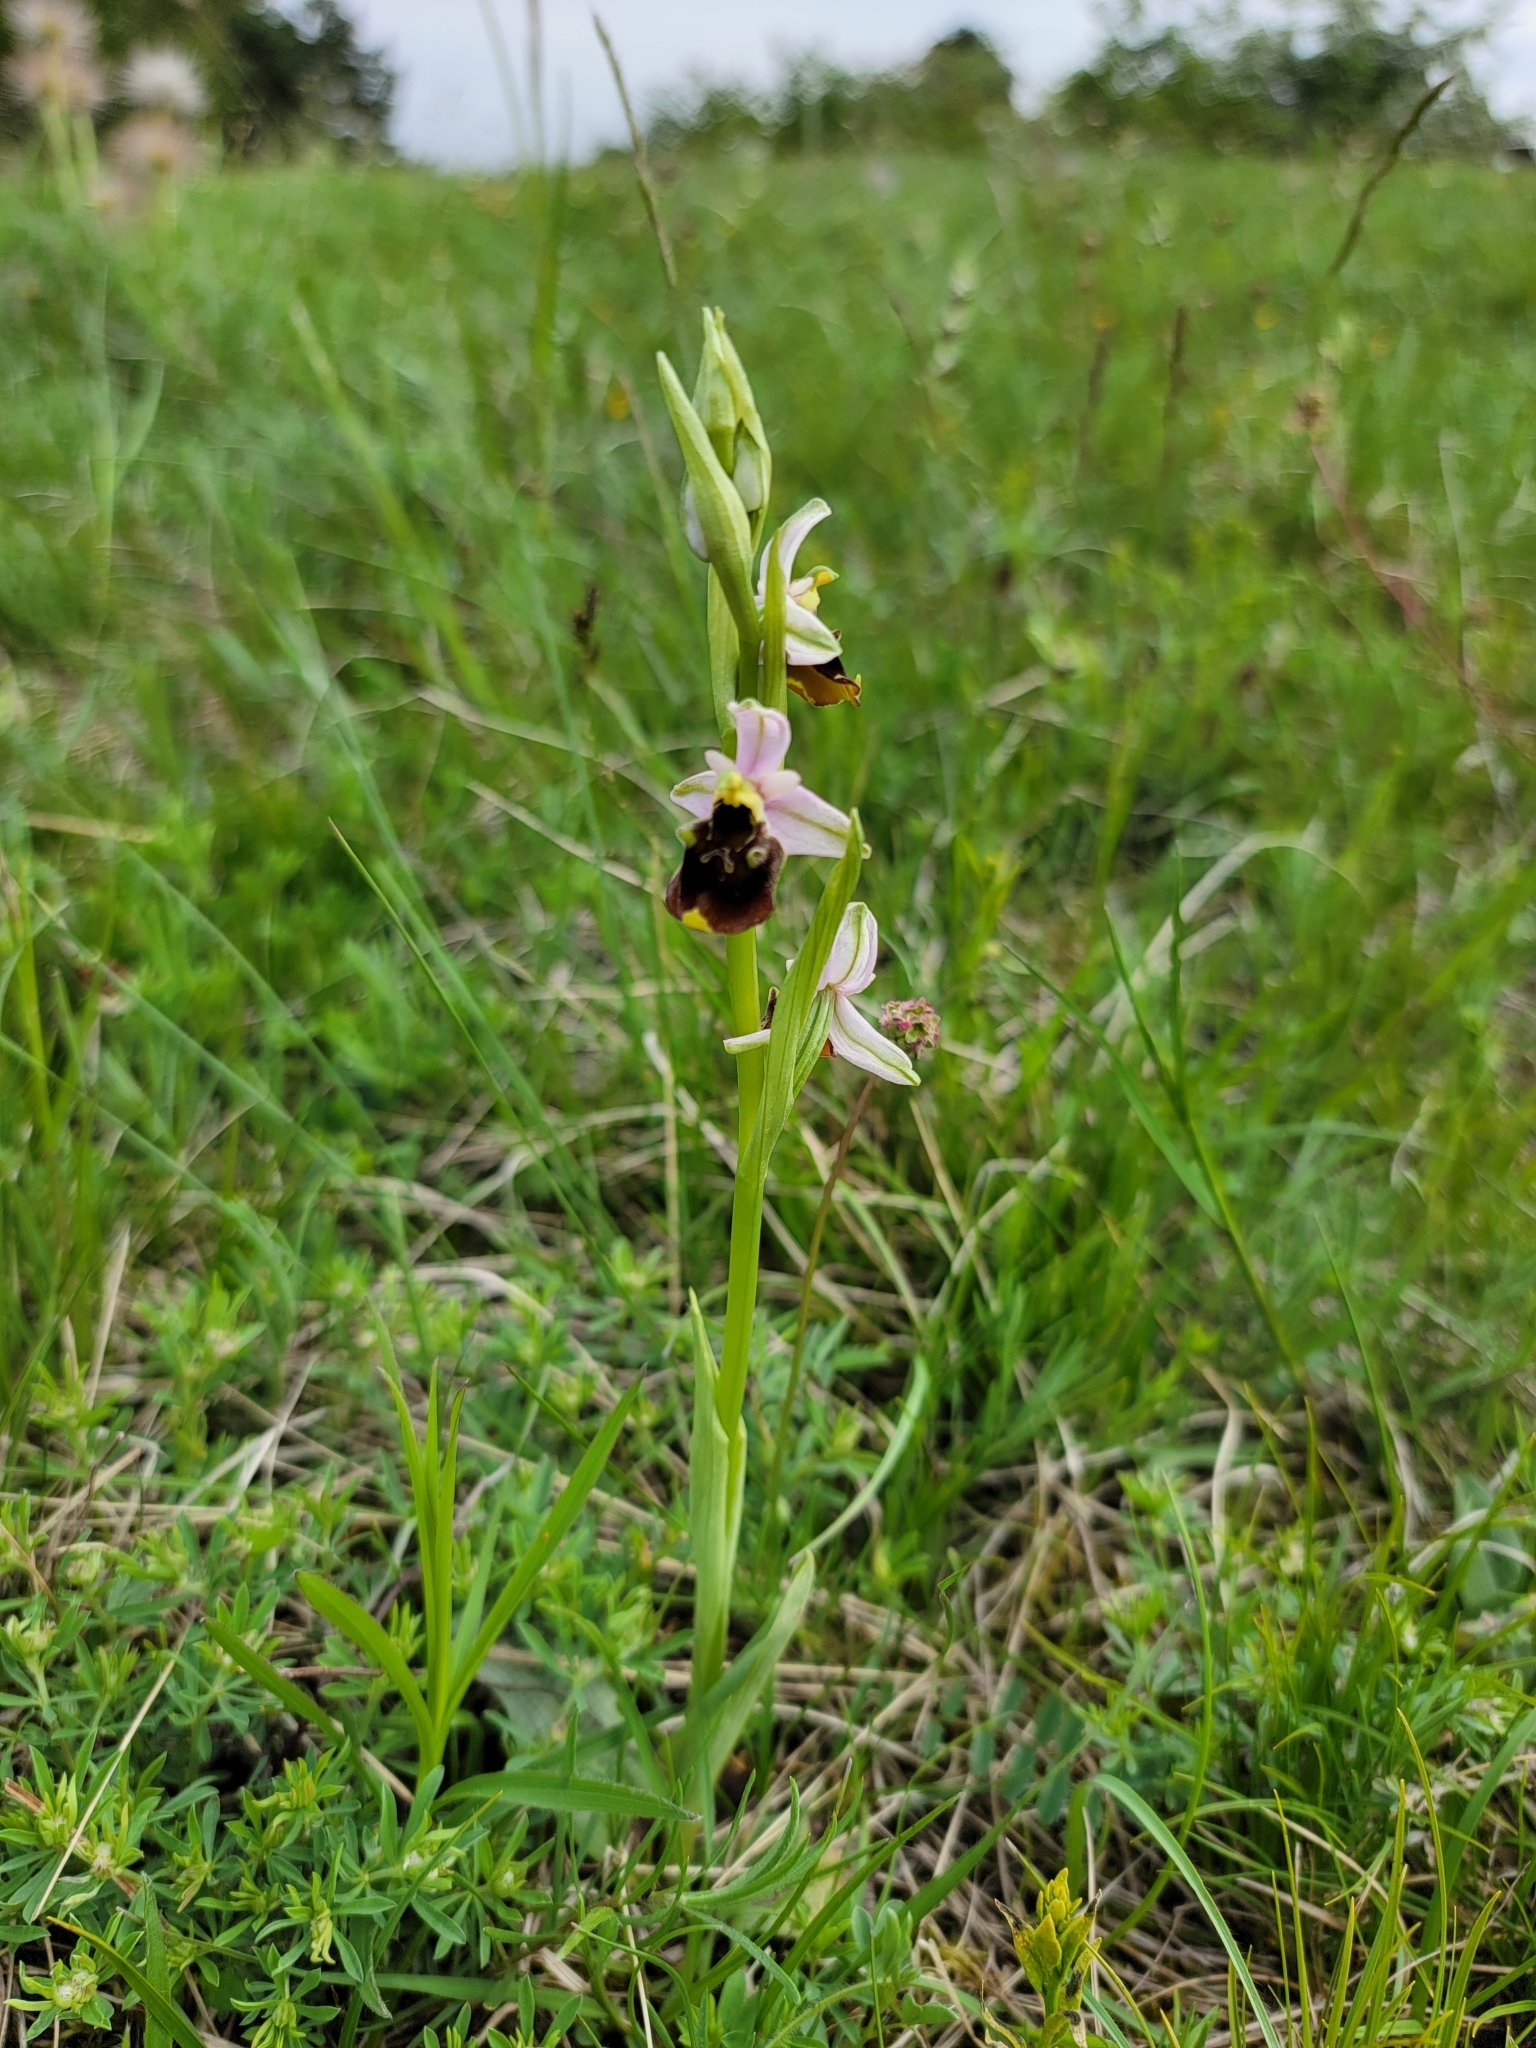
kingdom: Plantae
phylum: Tracheophyta
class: Liliopsida
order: Asparagales
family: Orchidaceae
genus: Ophrys
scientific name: Ophrys holosericea
